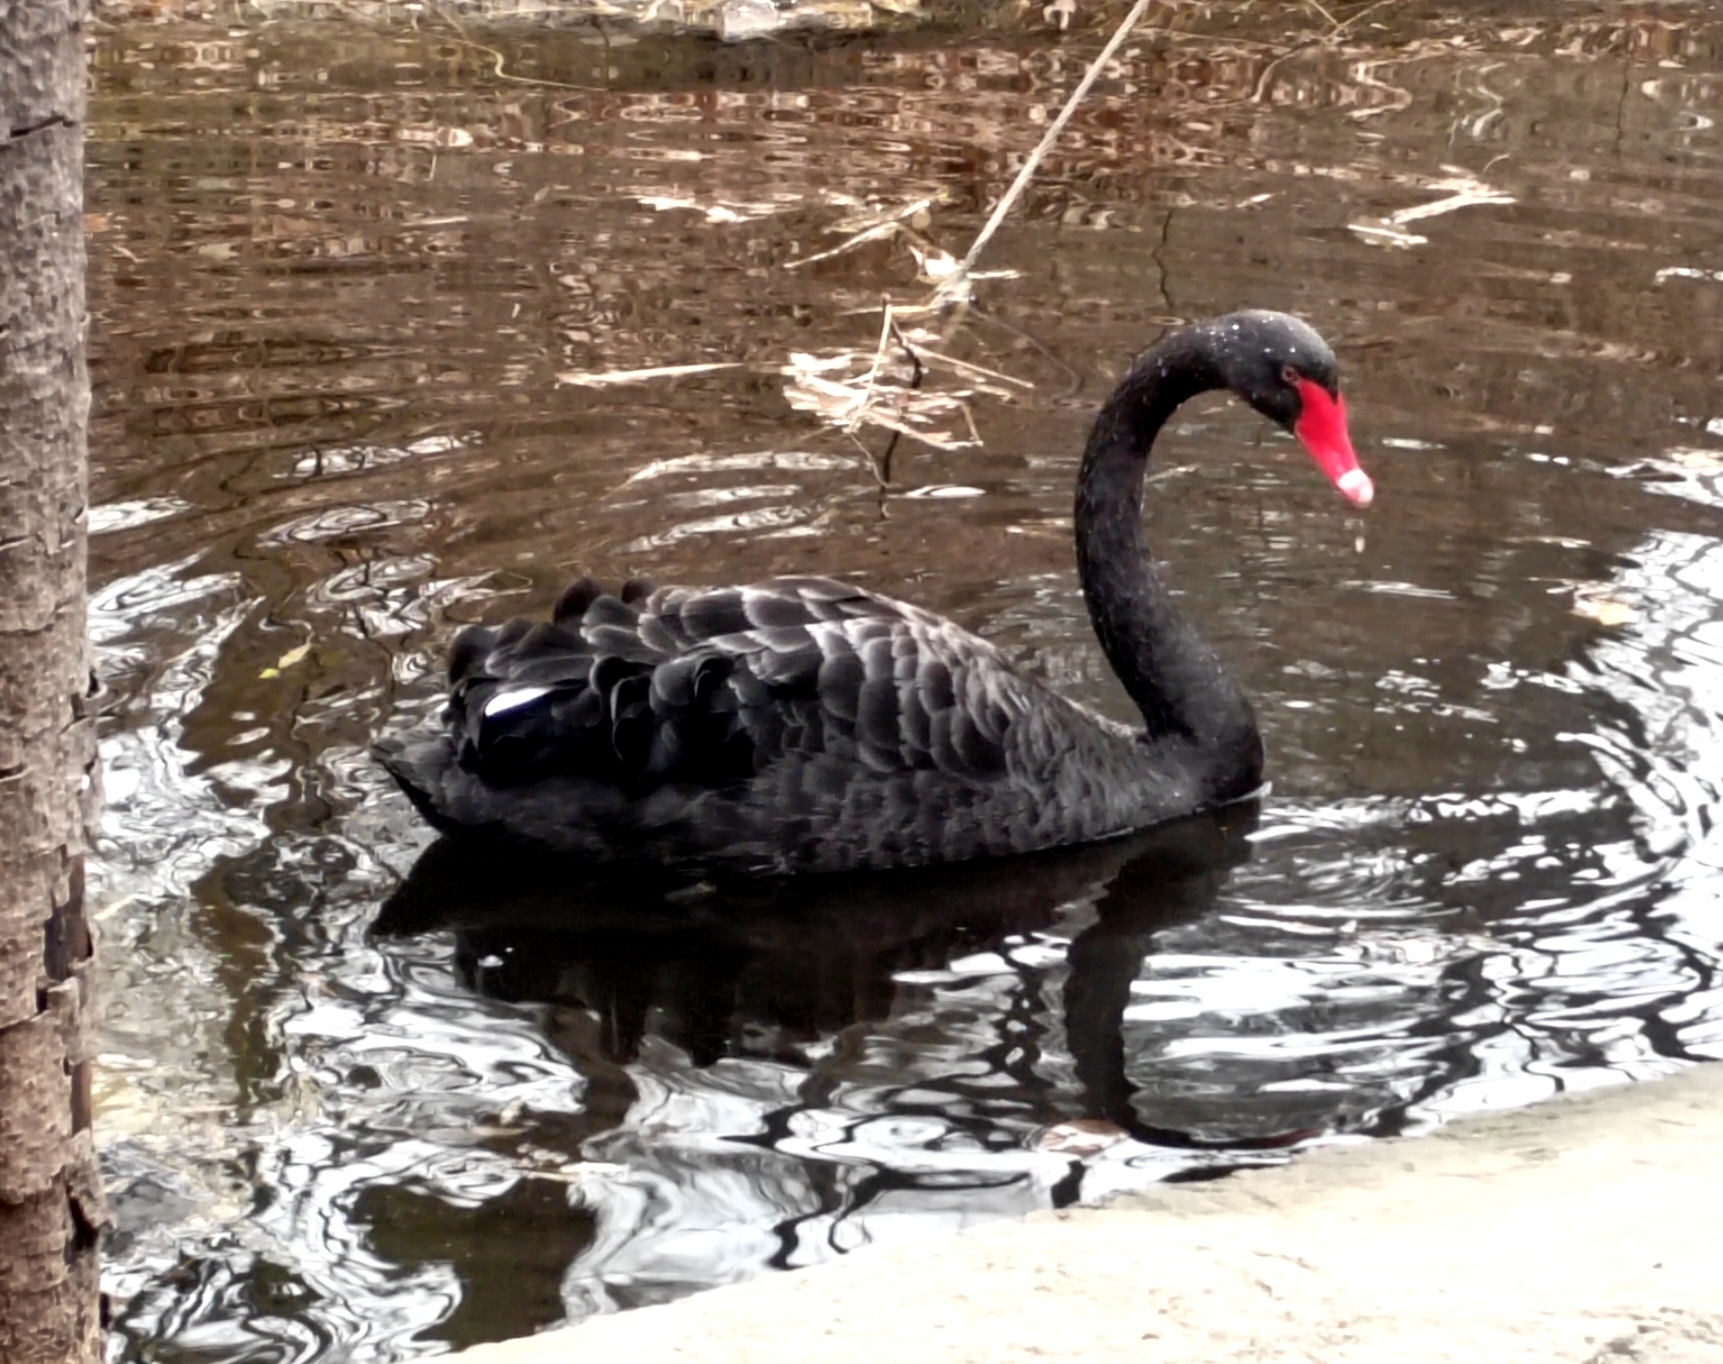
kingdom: Animalia
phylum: Chordata
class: Aves
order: Anseriformes
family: Anatidae
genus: Cygnus
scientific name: Cygnus atratus
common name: Black swan
